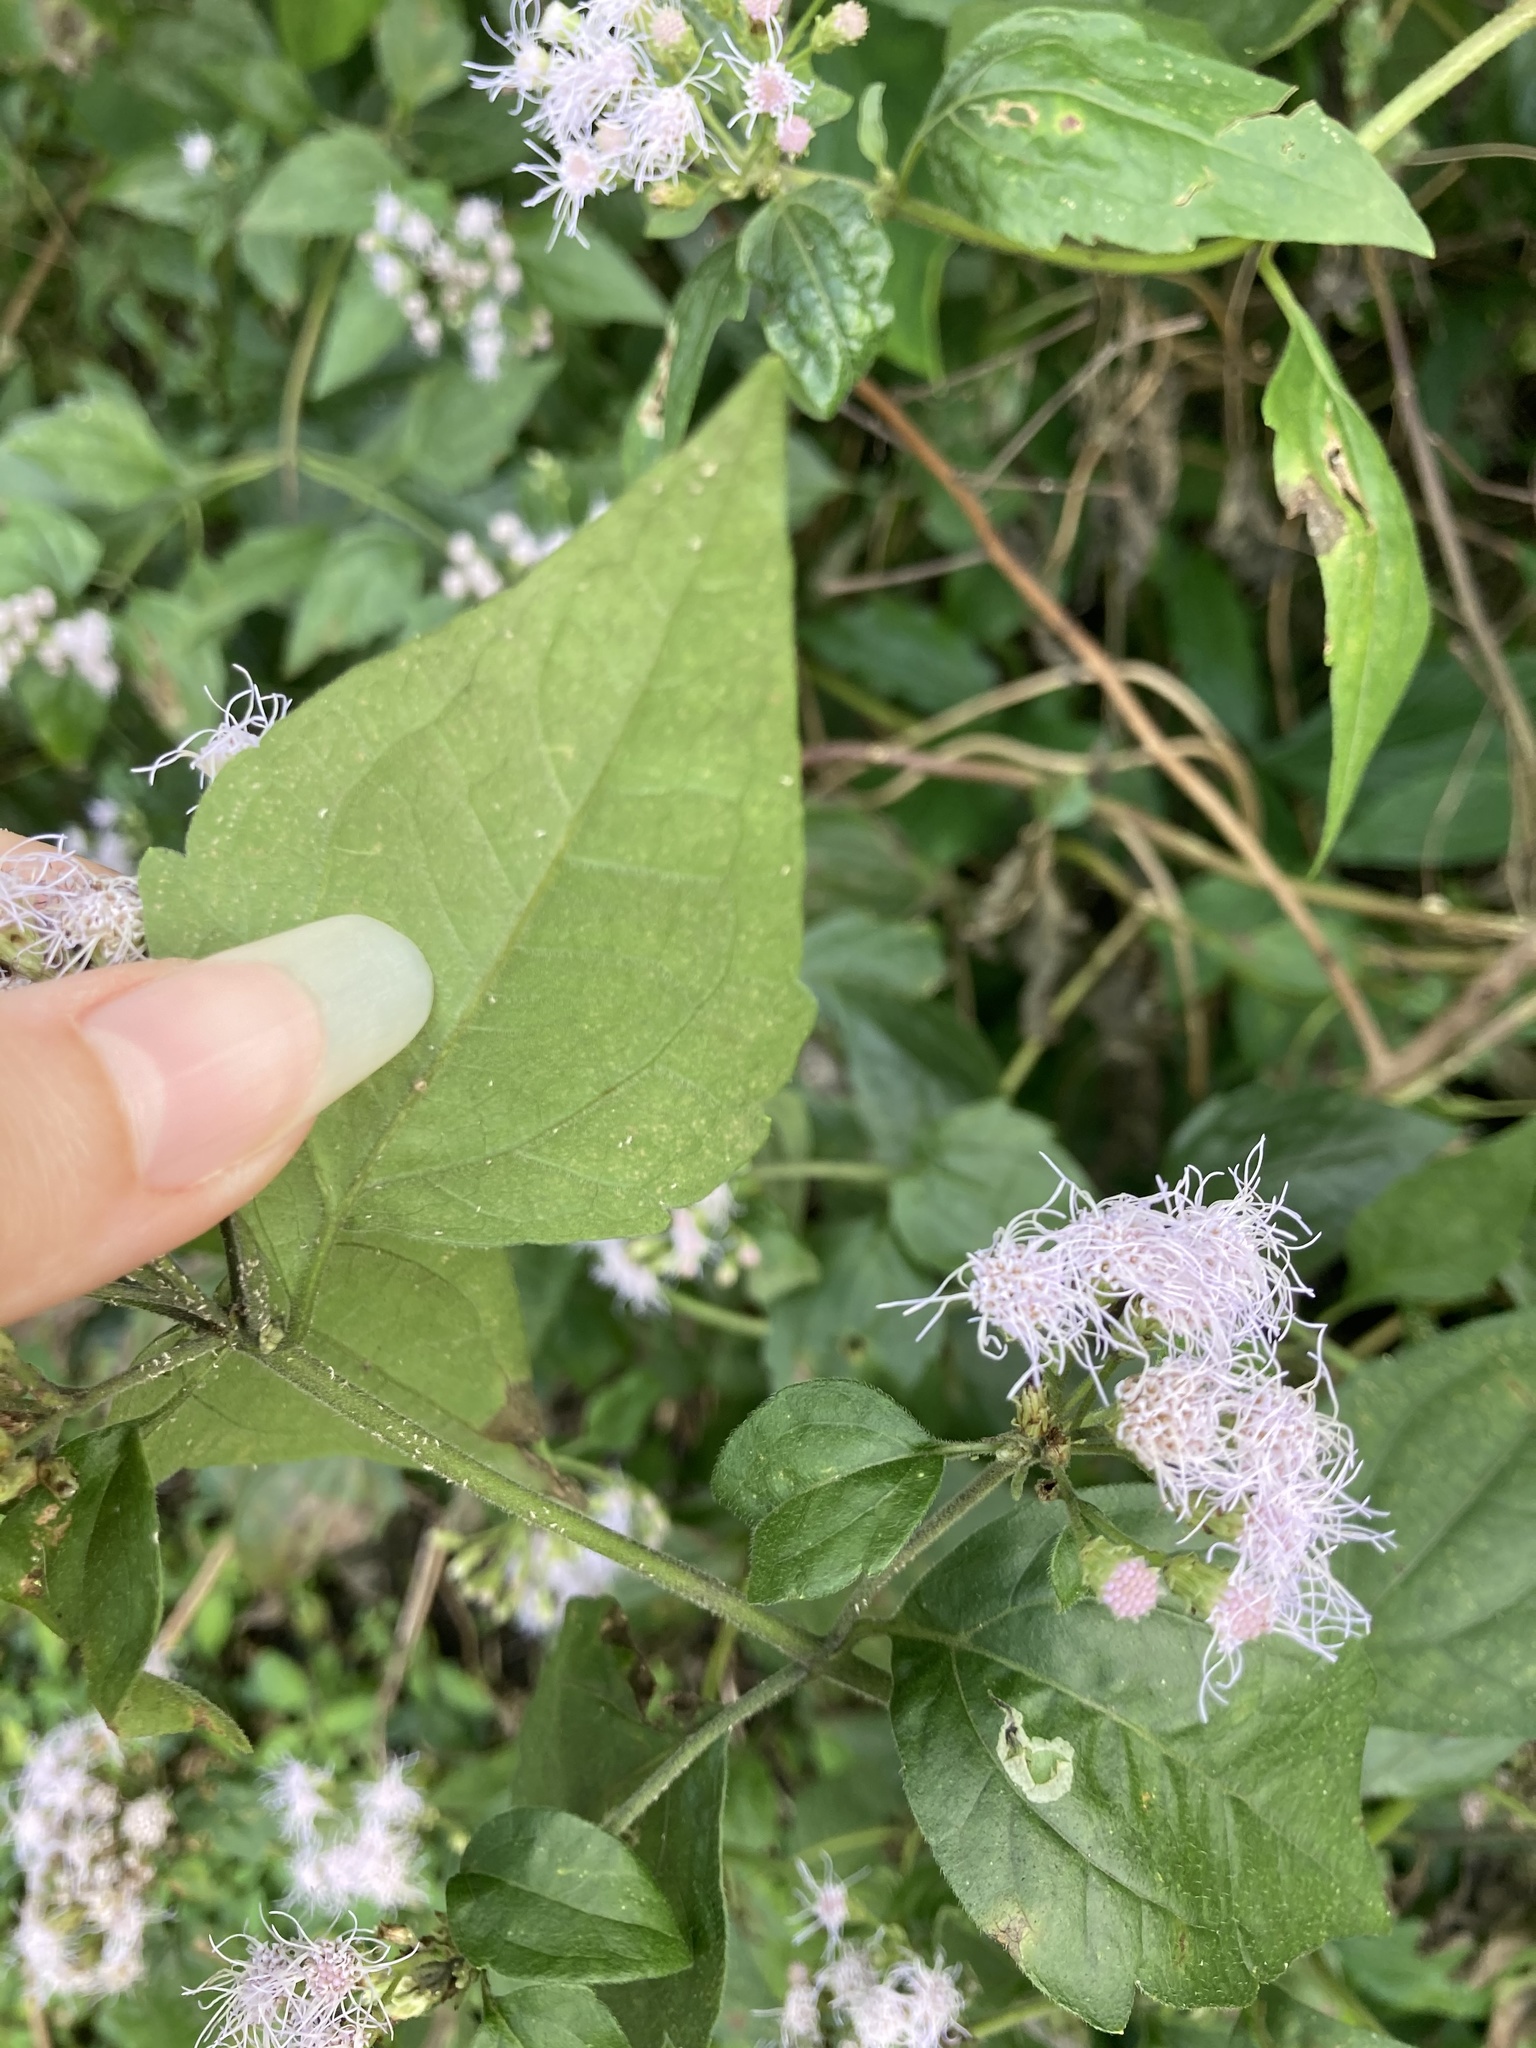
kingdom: Plantae
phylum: Tracheophyta
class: Magnoliopsida
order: Asterales
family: Asteraceae
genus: Chromolaena
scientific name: Chromolaena odorata
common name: Siamweed
